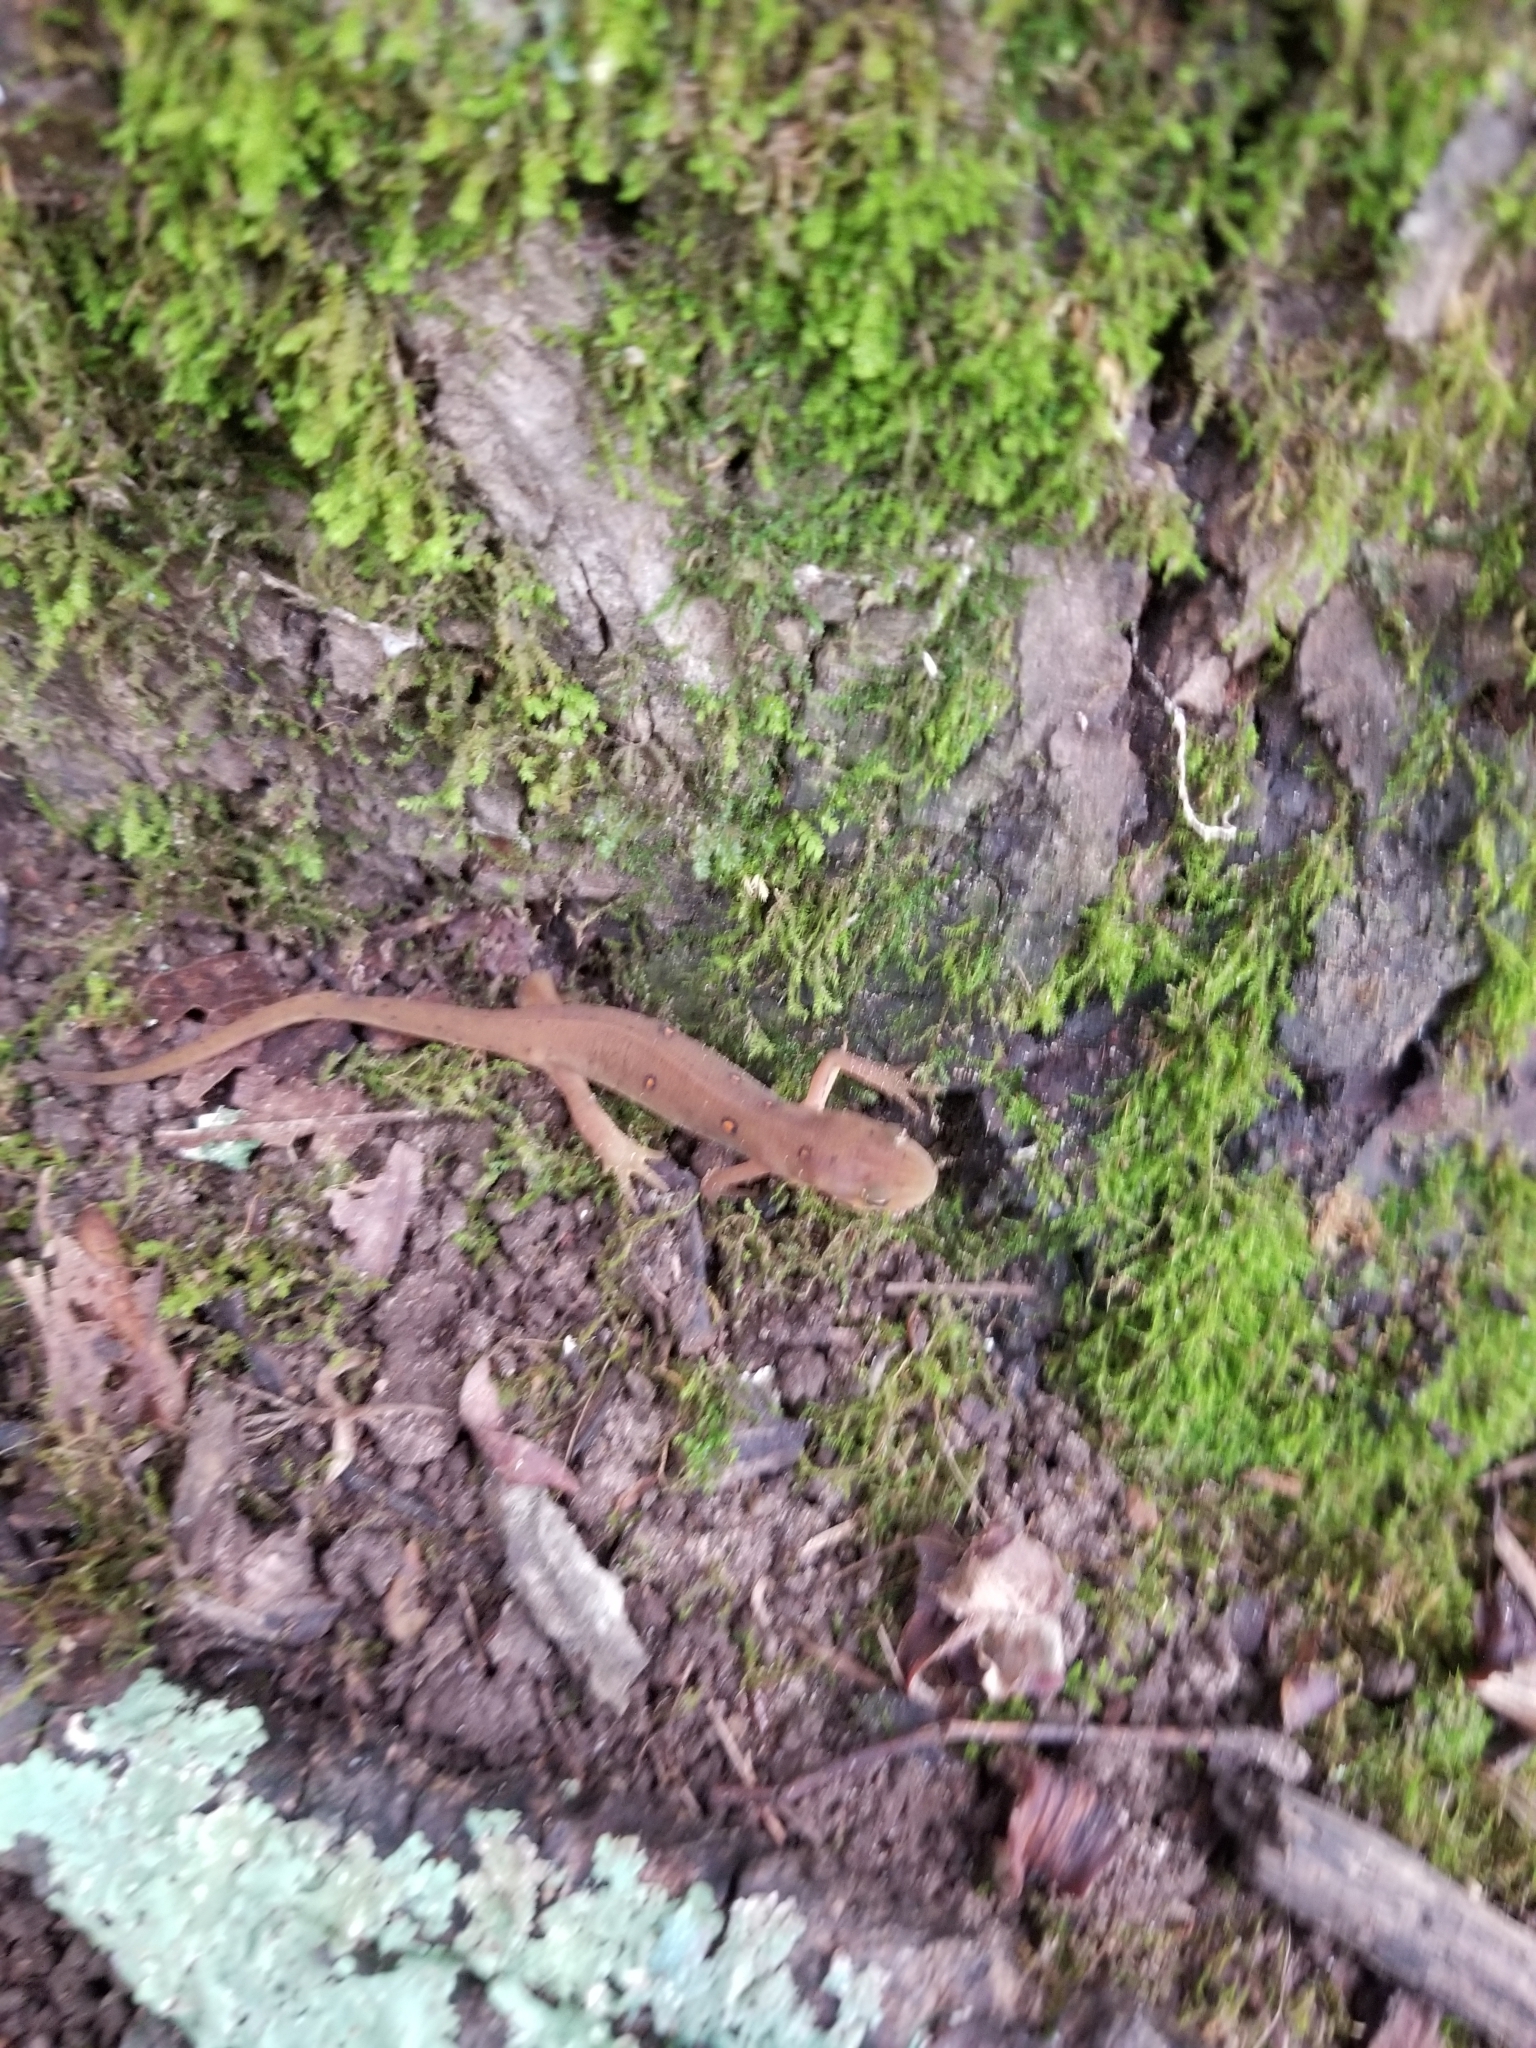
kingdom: Animalia
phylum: Chordata
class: Amphibia
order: Caudata
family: Salamandridae
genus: Notophthalmus
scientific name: Notophthalmus viridescens
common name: Eastern newt
